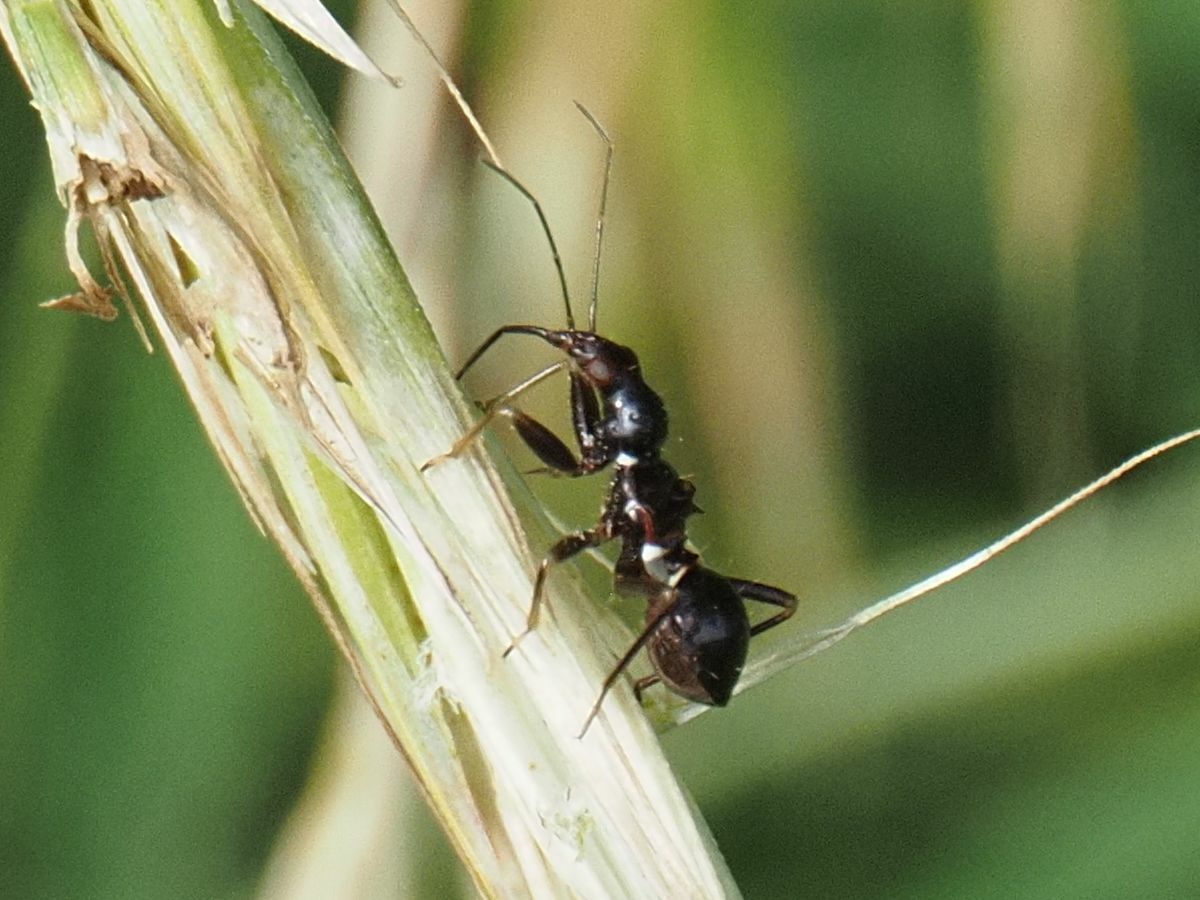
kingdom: Animalia
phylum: Arthropoda
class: Insecta
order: Hemiptera
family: Nabidae
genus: Himacerus
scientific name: Himacerus mirmicoides
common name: Ant damsel bug
